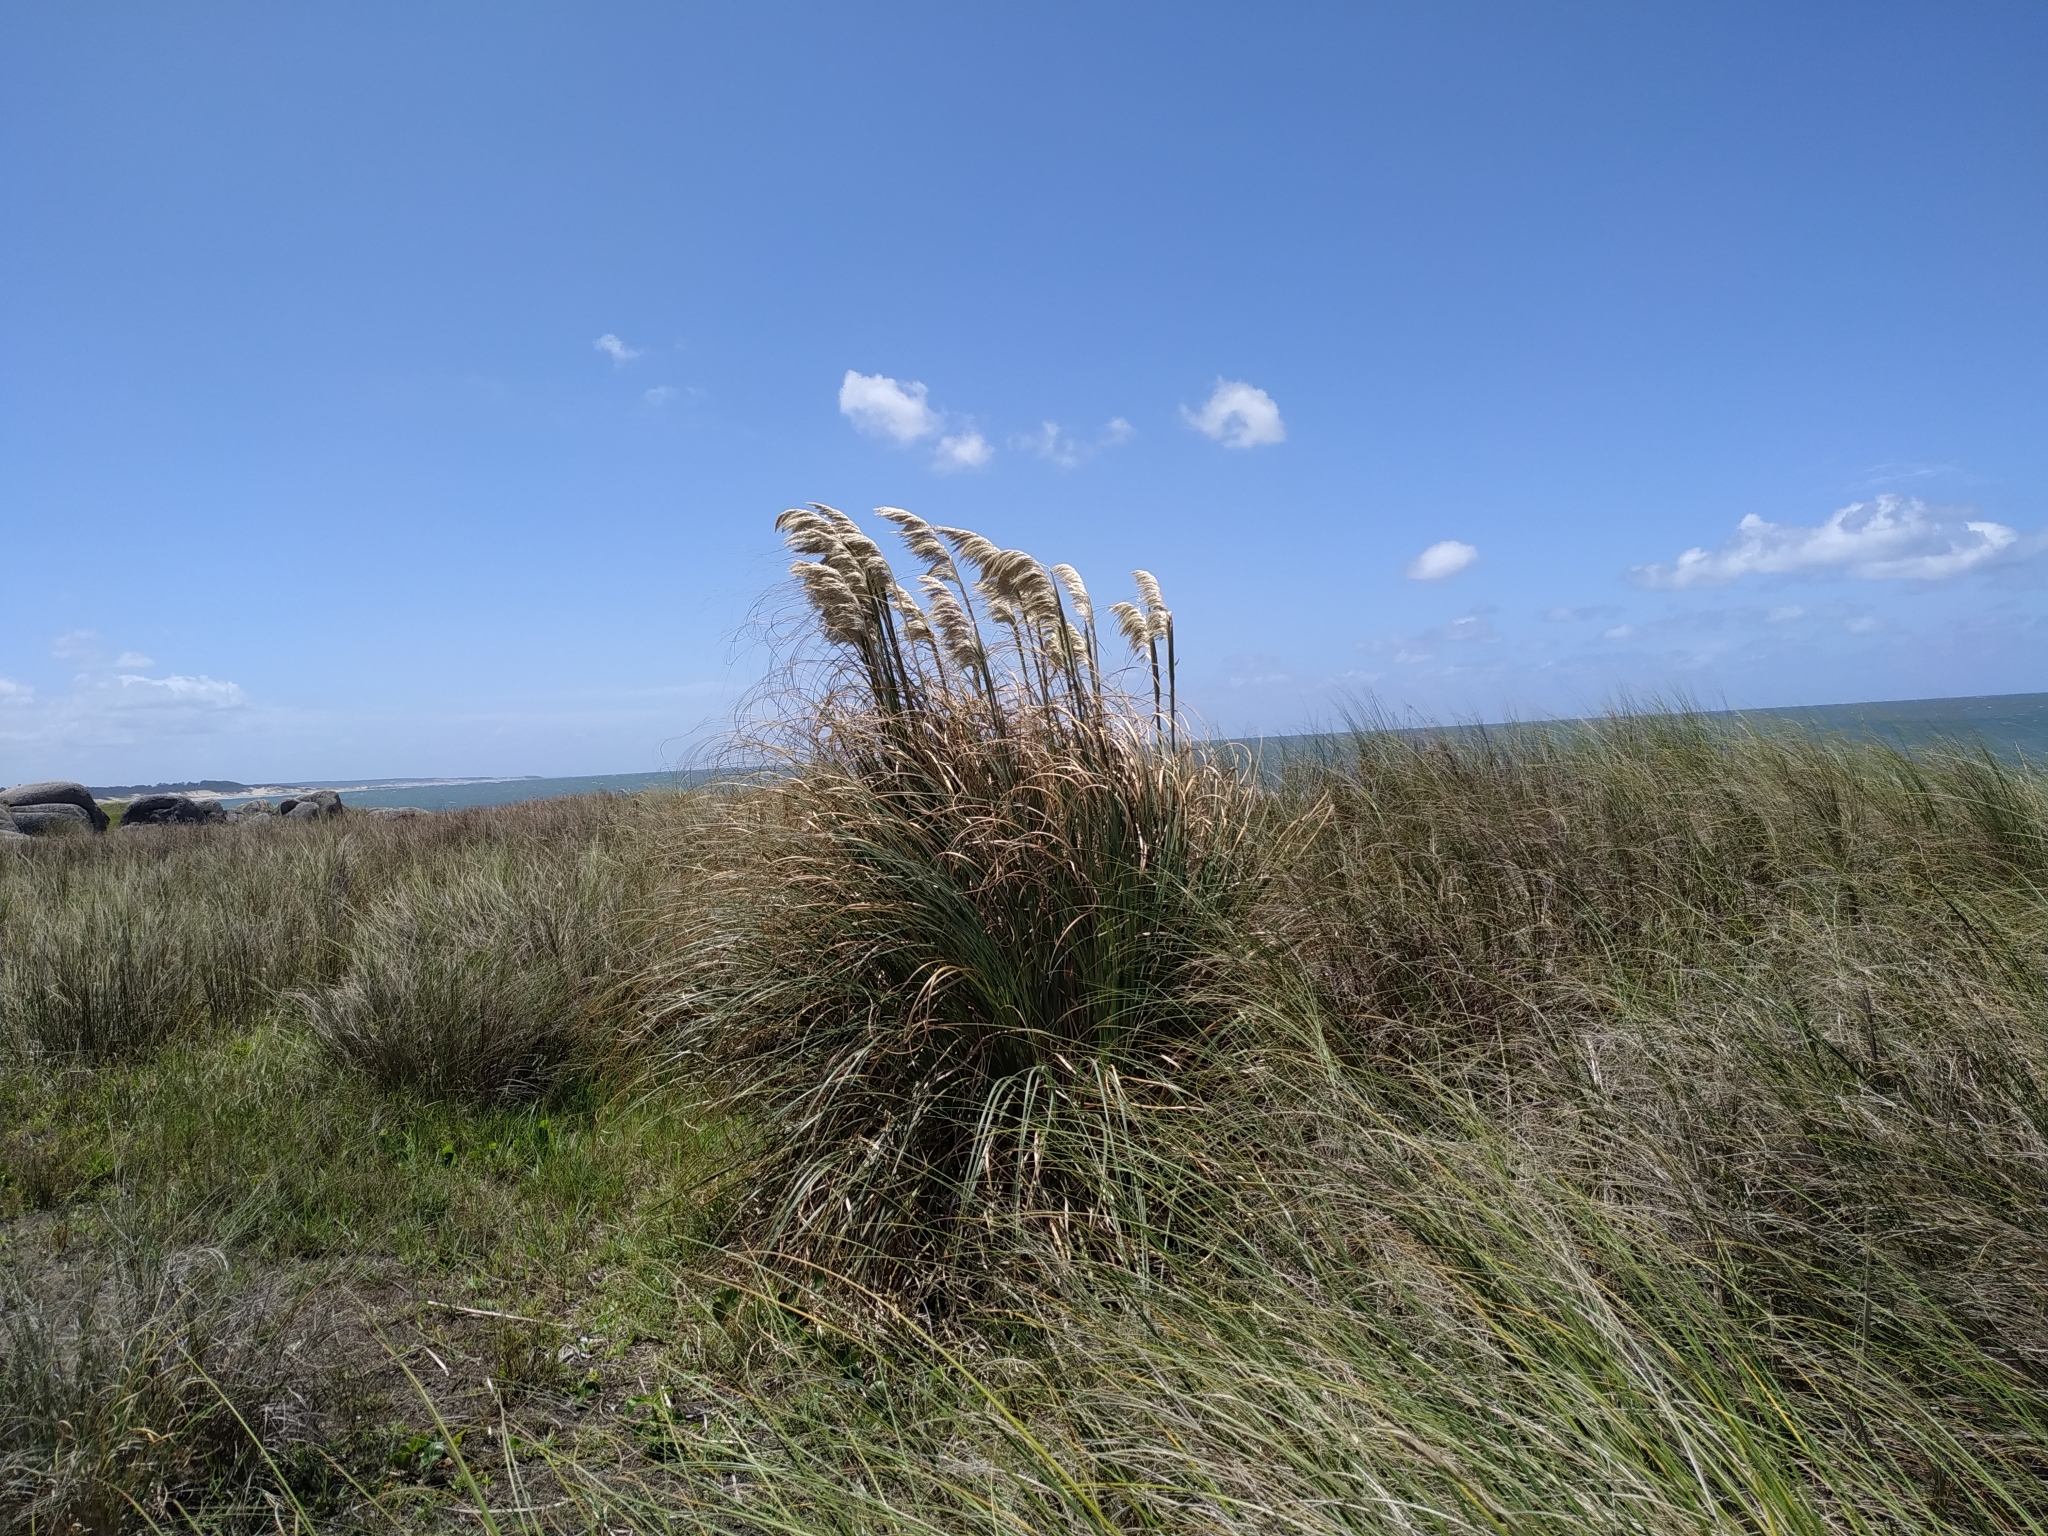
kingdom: Plantae
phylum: Tracheophyta
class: Liliopsida
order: Poales
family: Poaceae
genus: Cortaderia
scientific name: Cortaderia selloana
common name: Uruguayan pampas grass
